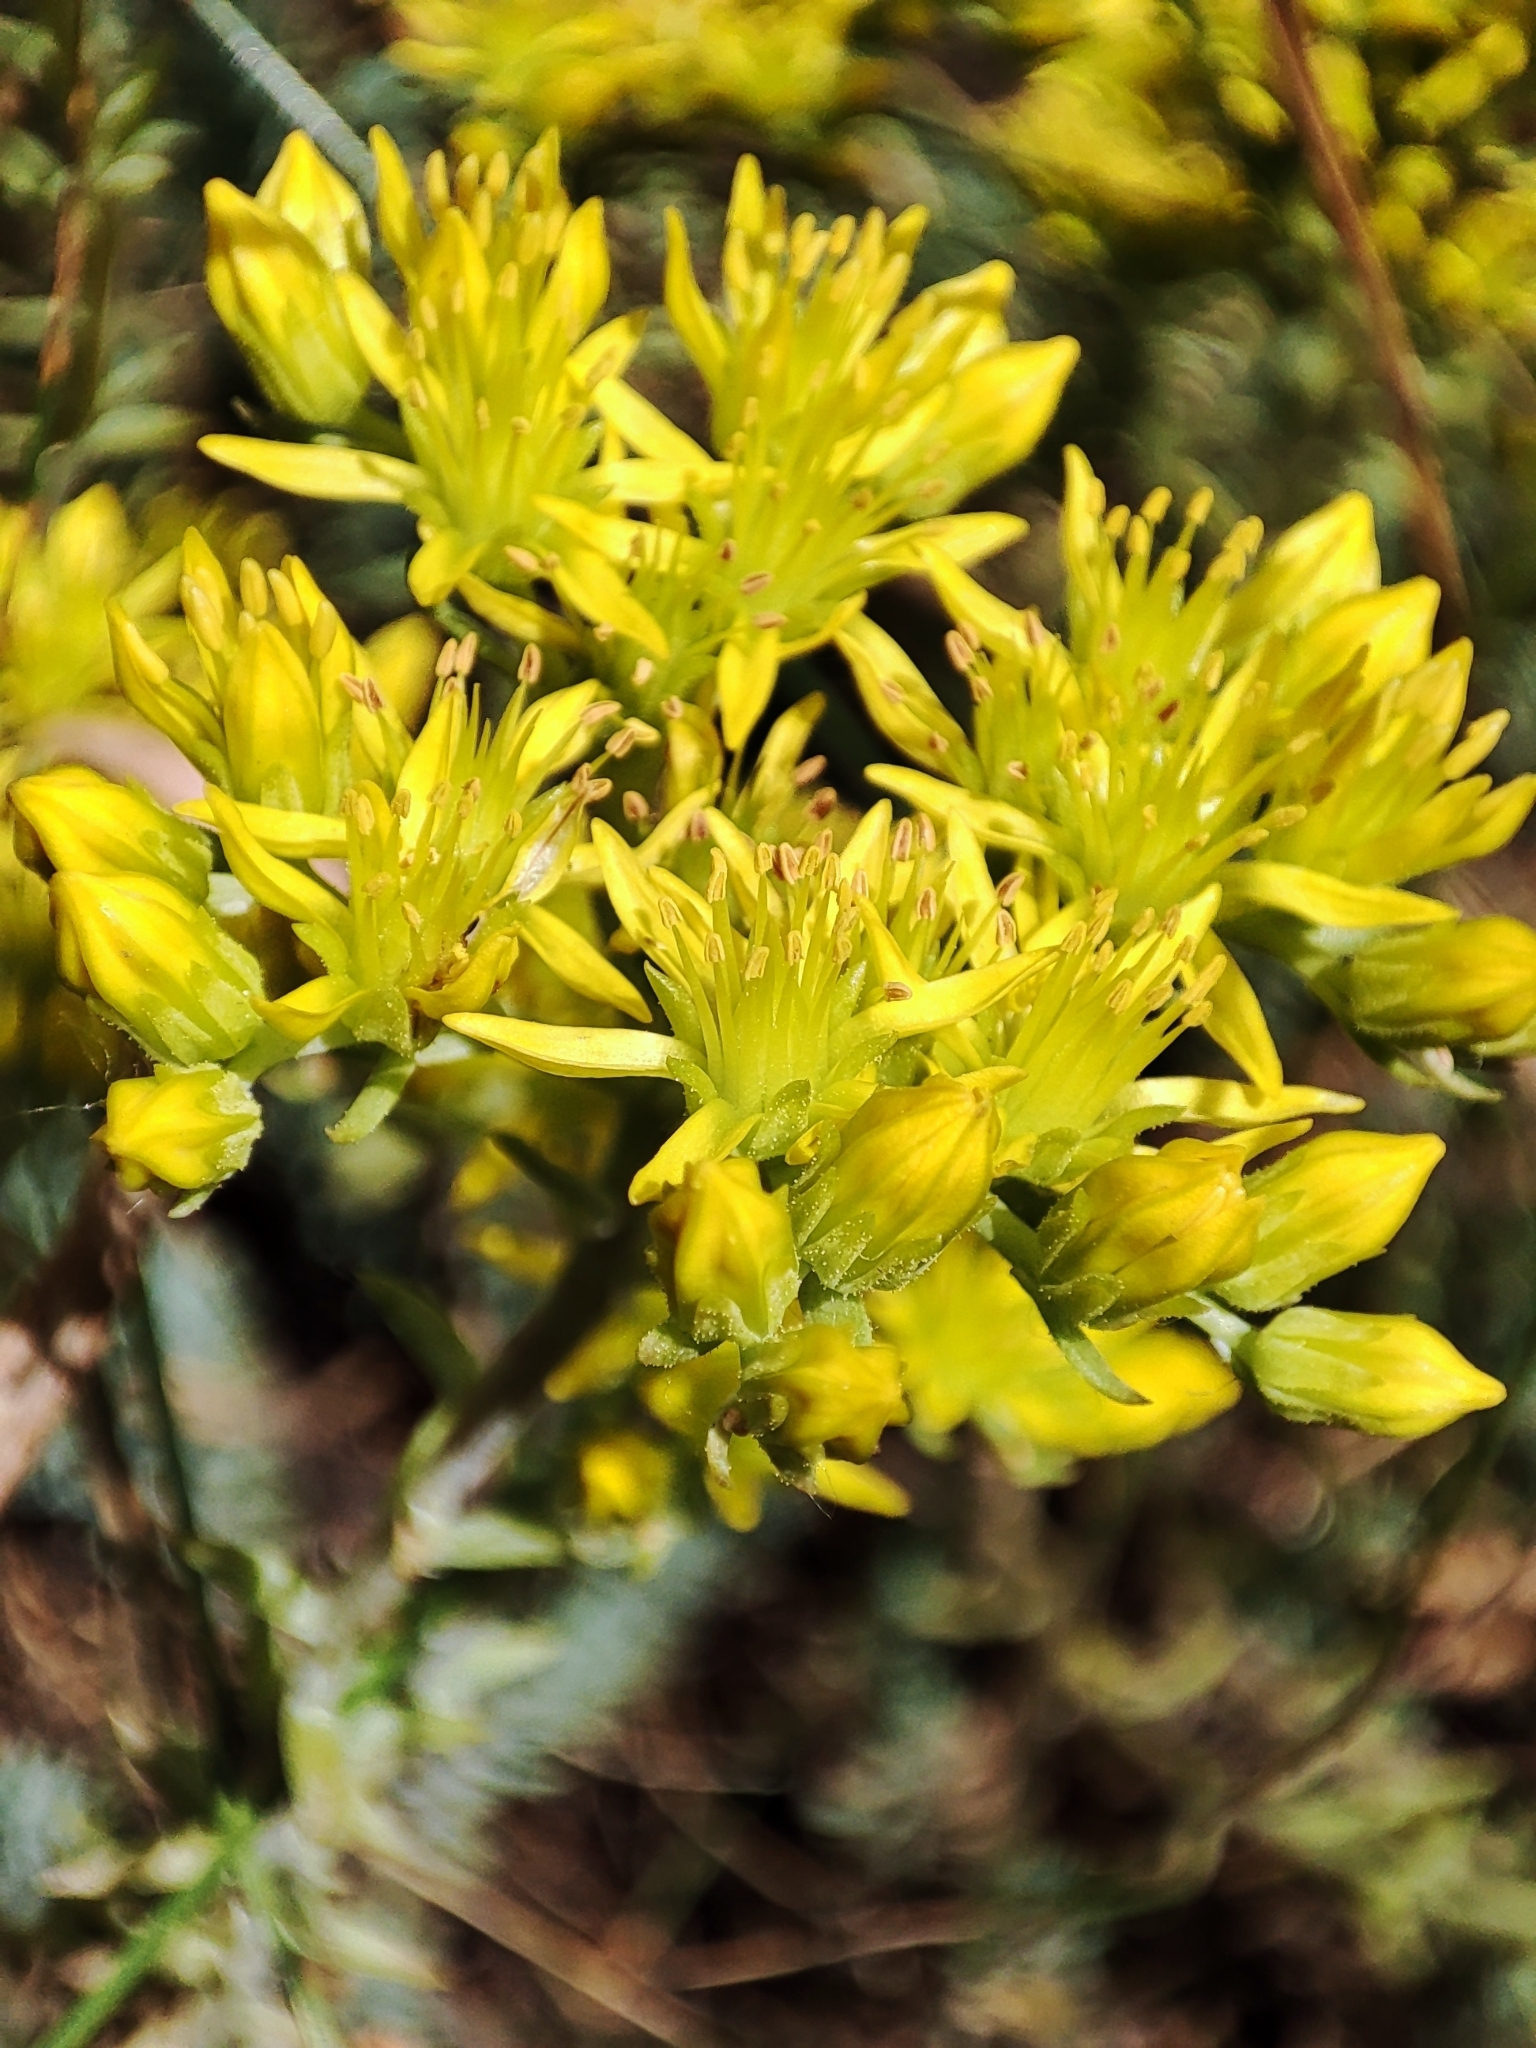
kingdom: Plantae
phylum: Tracheophyta
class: Magnoliopsida
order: Saxifragales
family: Crassulaceae
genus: Petrosedum
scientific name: Petrosedum montanum
